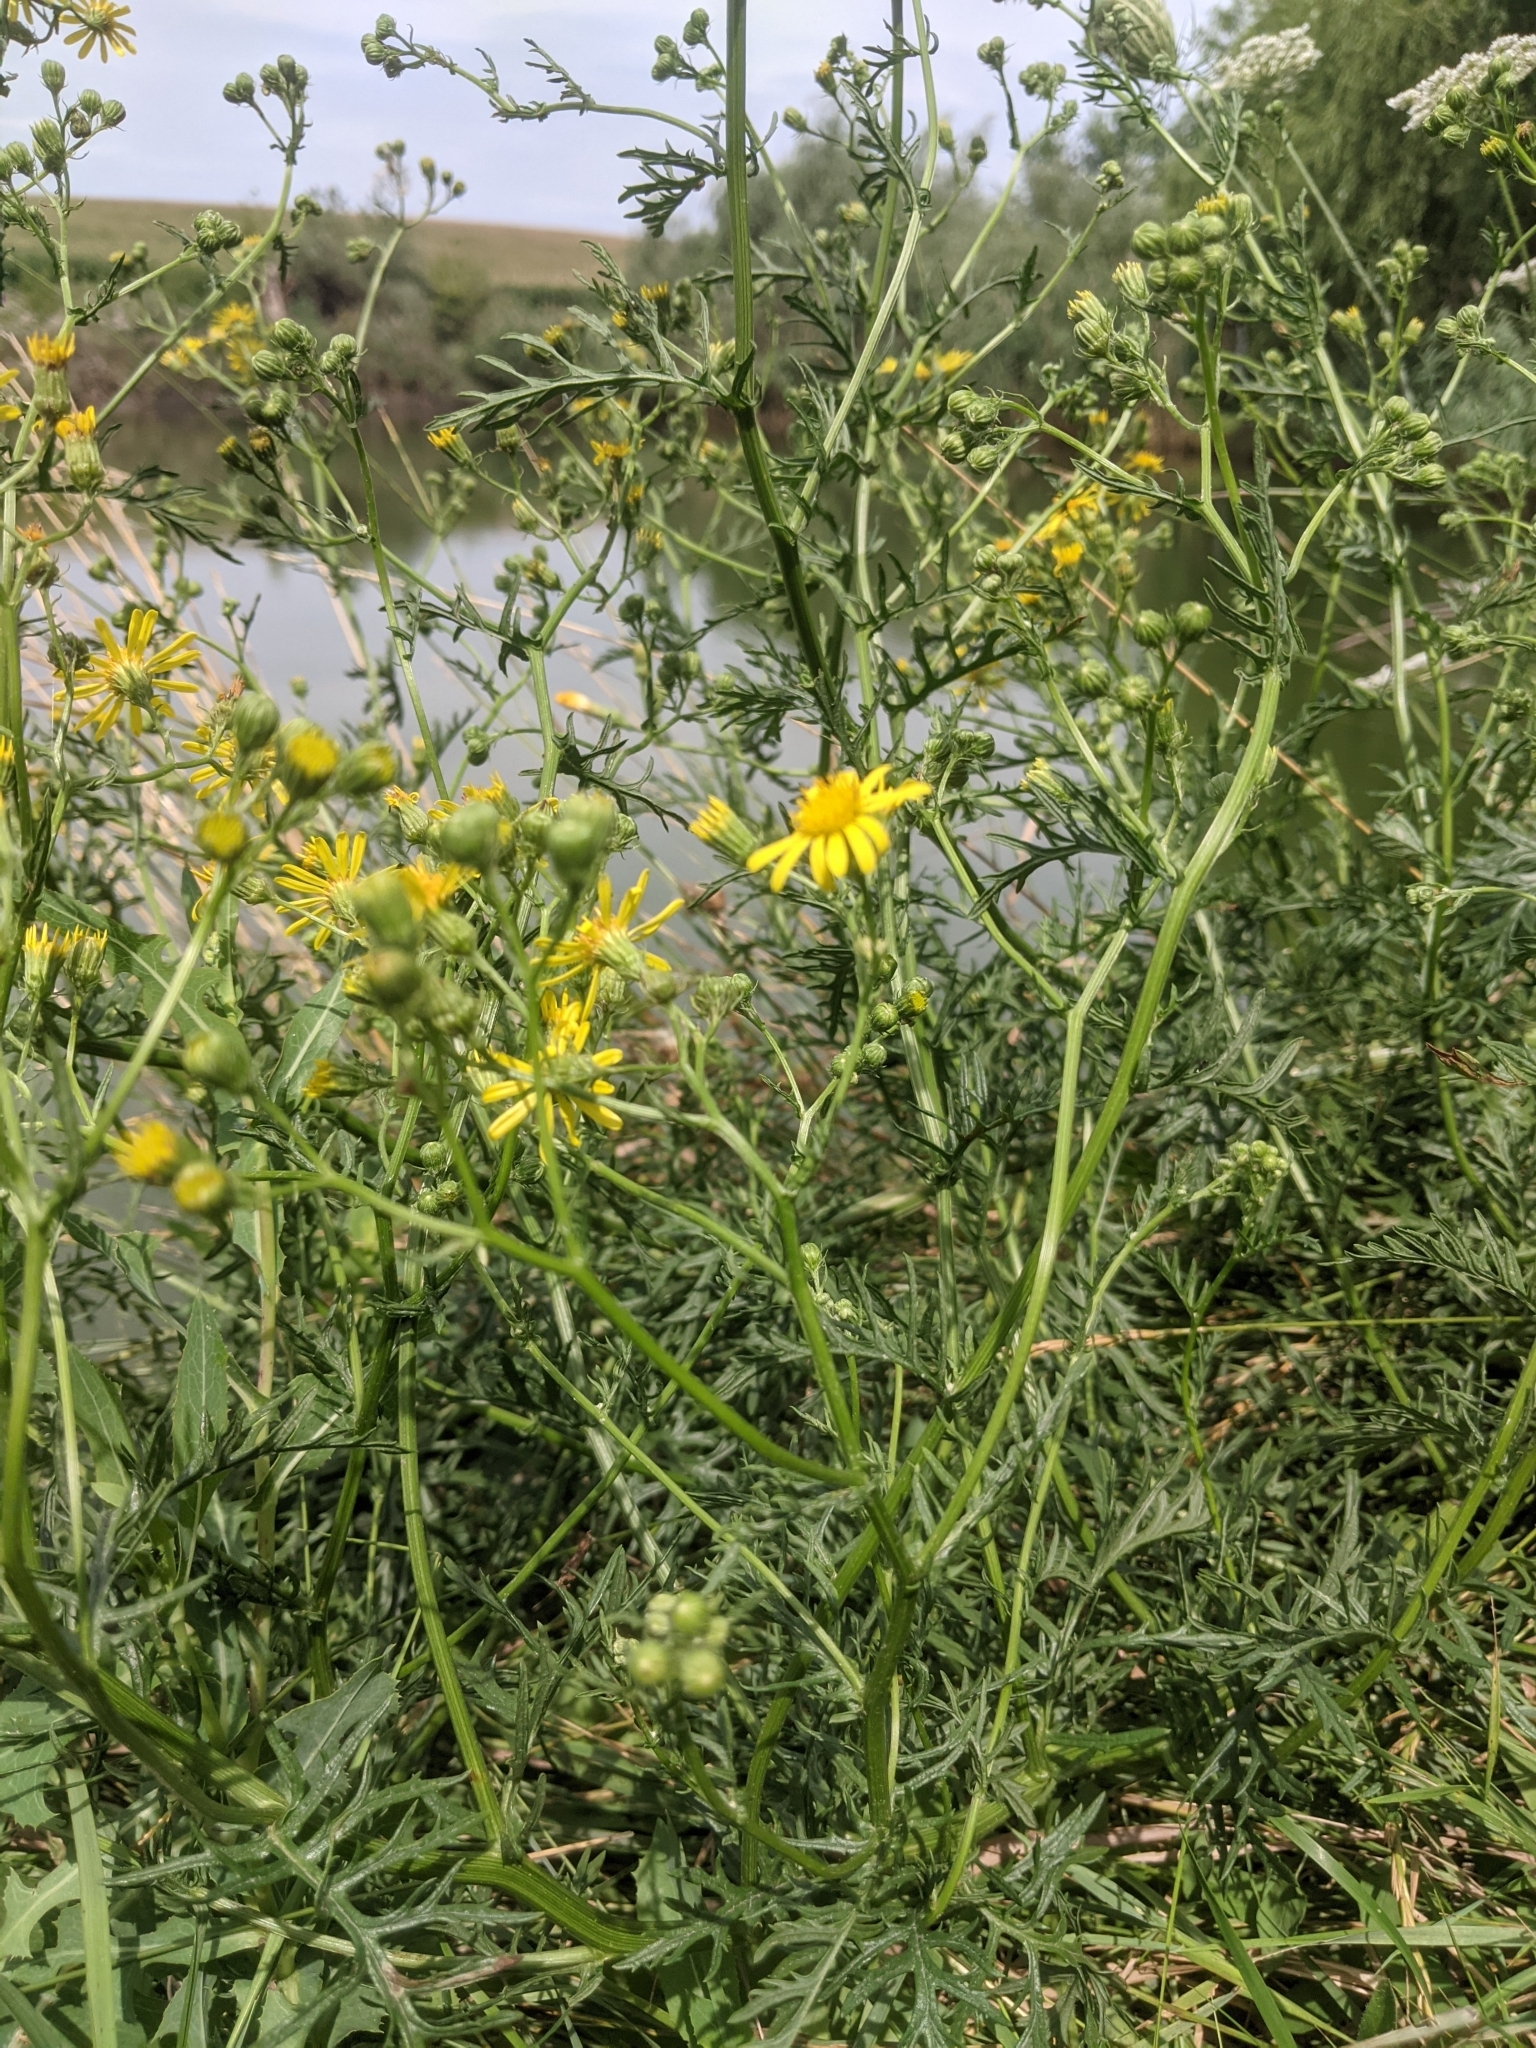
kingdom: Plantae
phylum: Tracheophyta
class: Magnoliopsida
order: Asterales
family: Asteraceae
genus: Jacobaea
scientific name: Jacobaea erucifolia
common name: Hoary ragwort
